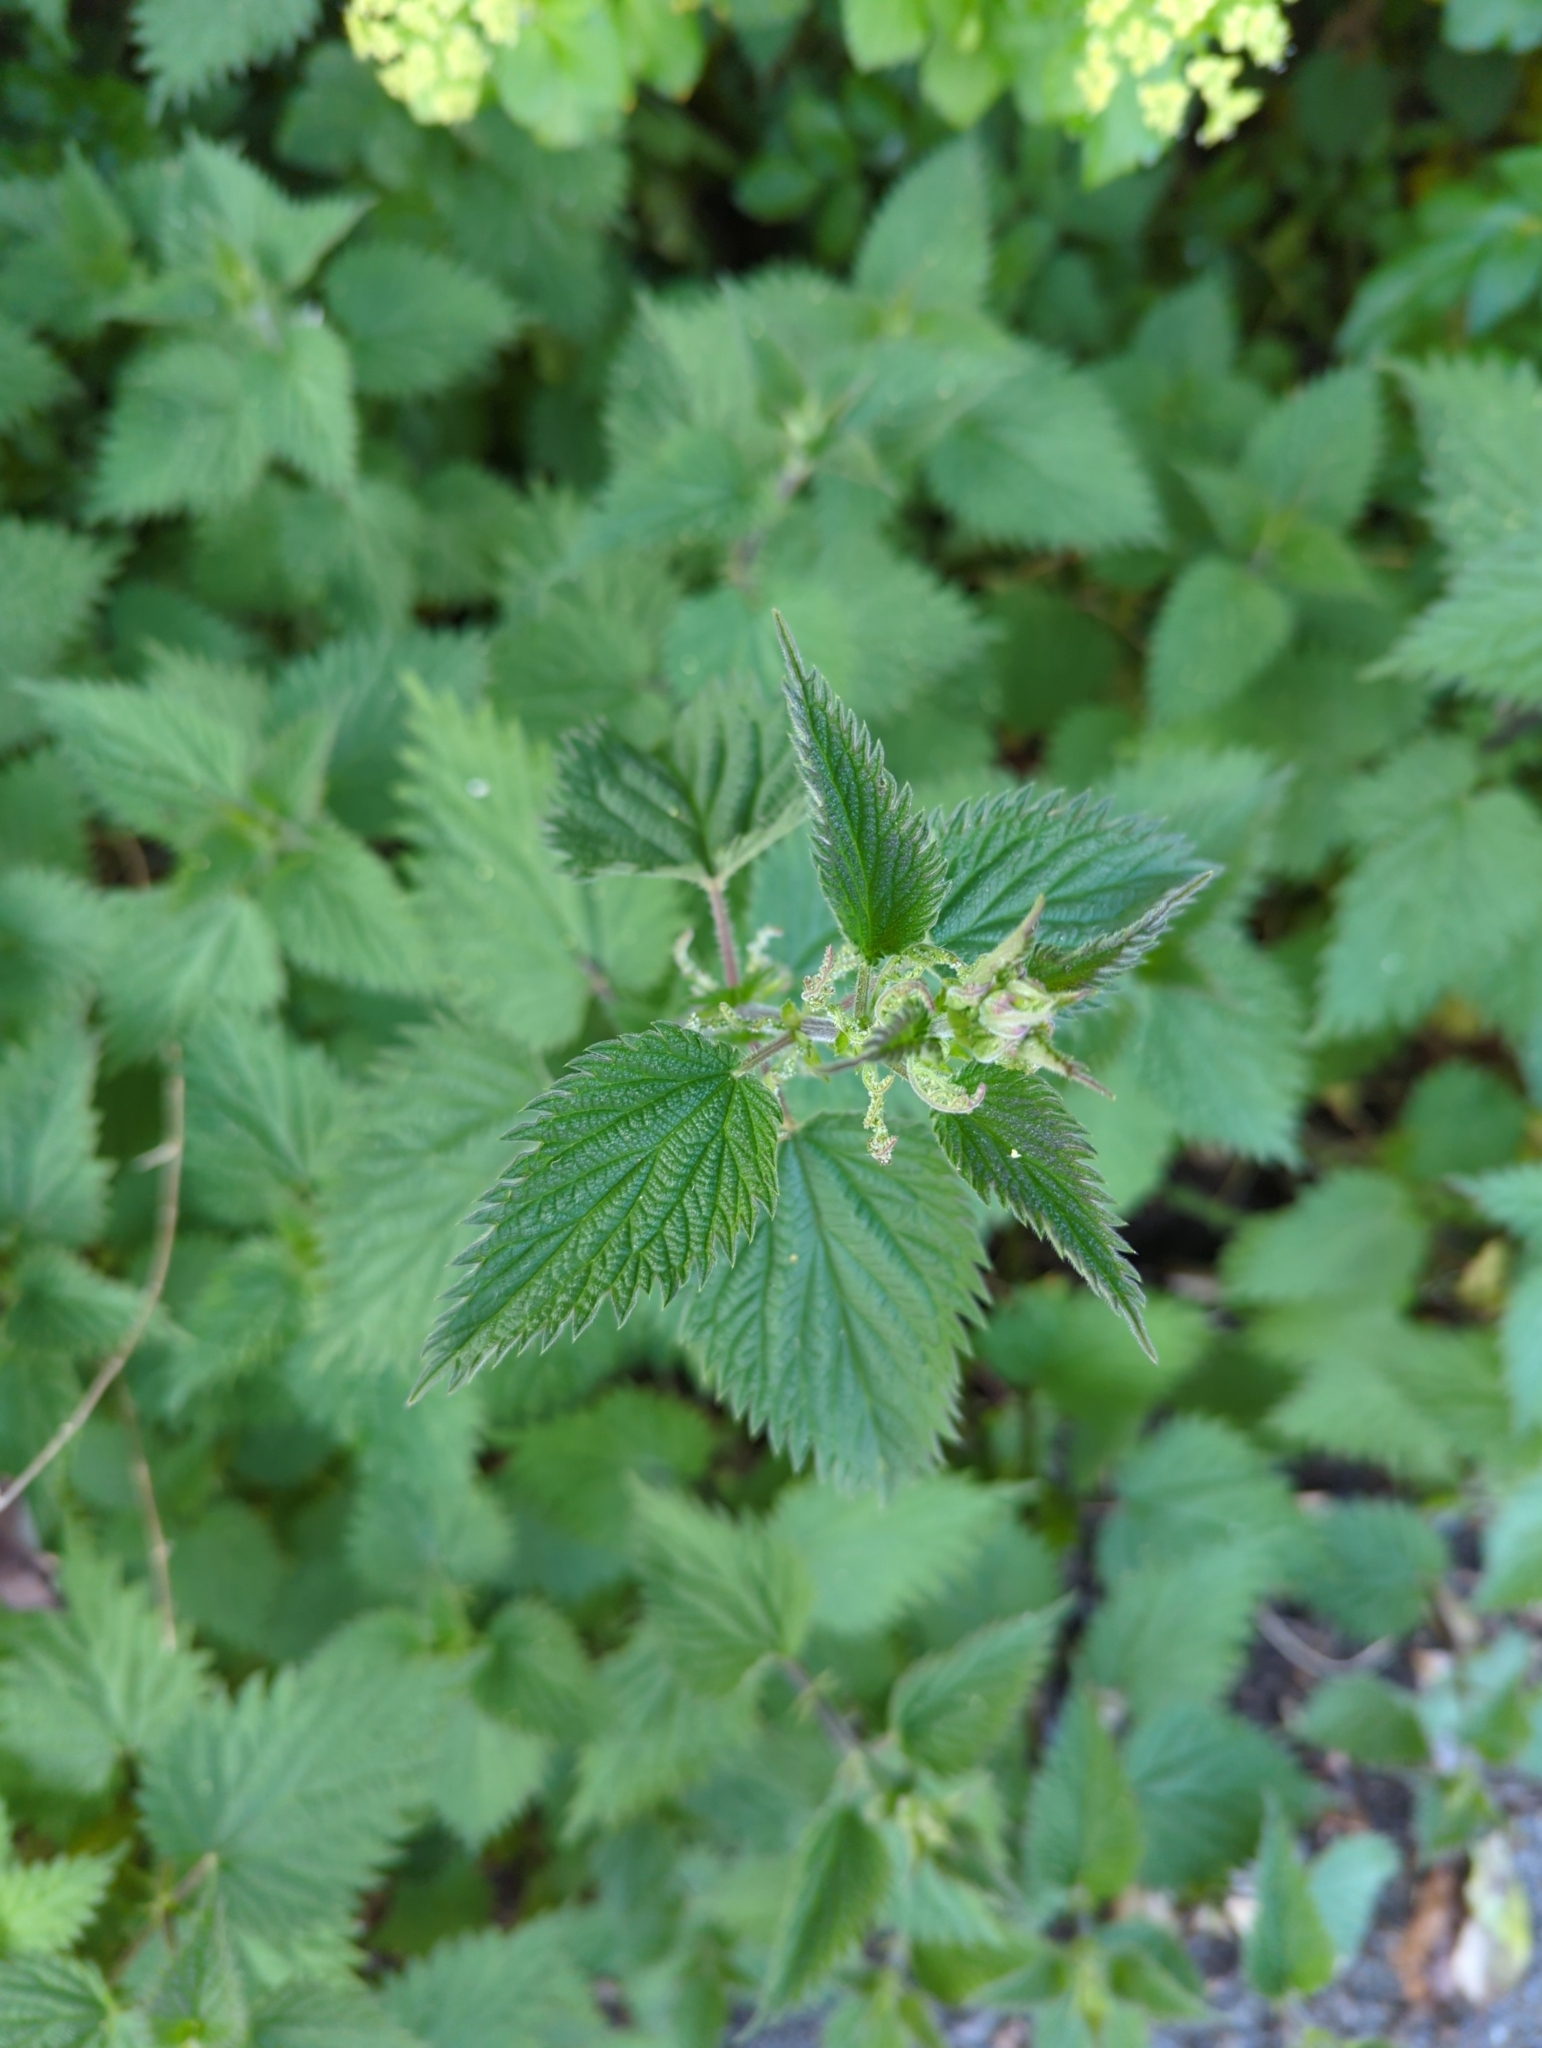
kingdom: Plantae
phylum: Tracheophyta
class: Magnoliopsida
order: Rosales
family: Urticaceae
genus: Urtica
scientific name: Urtica dioica
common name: Common nettle
